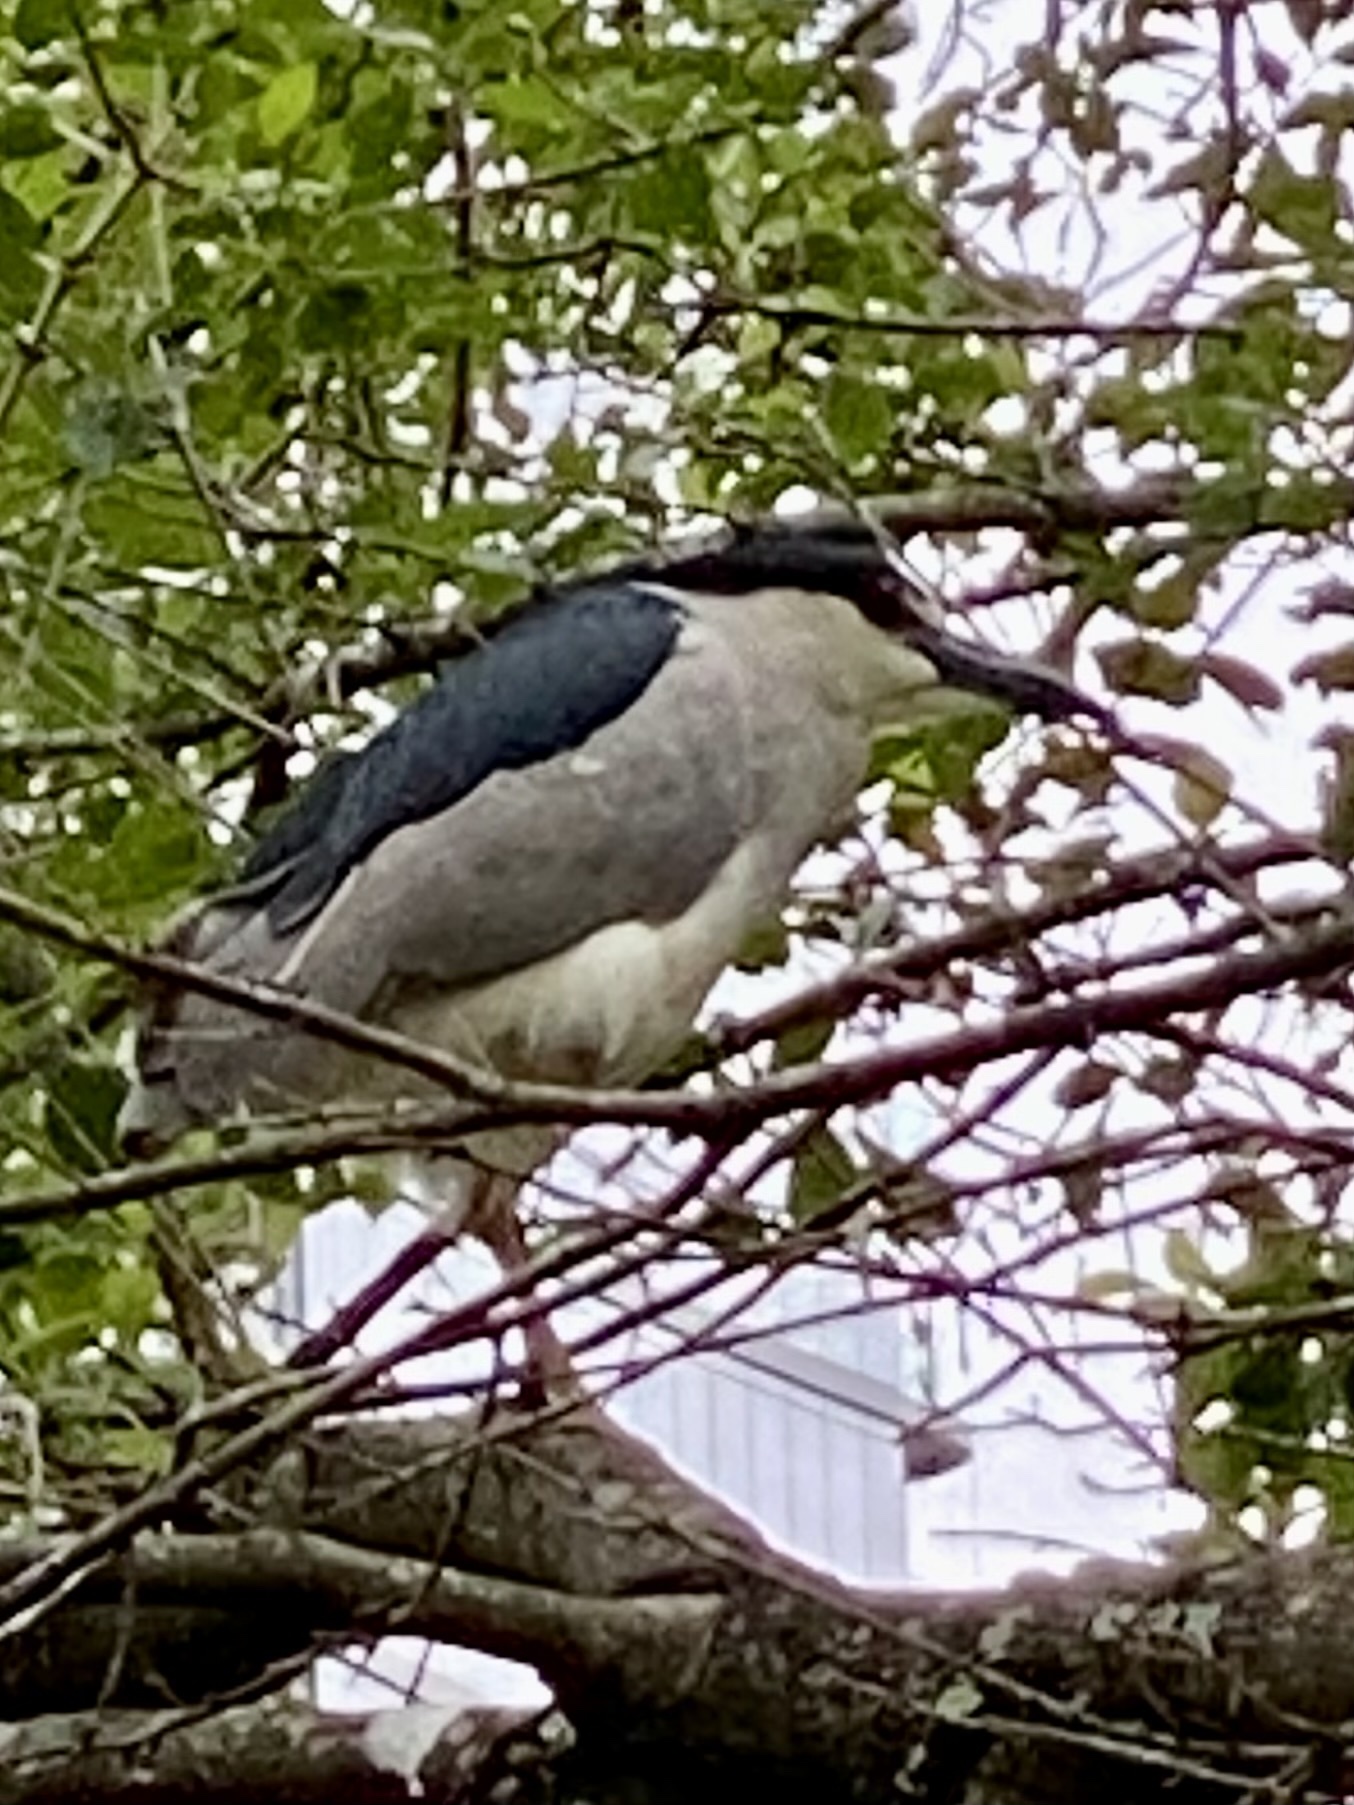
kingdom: Animalia
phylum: Chordata
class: Aves
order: Pelecaniformes
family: Ardeidae
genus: Nycticorax
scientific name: Nycticorax nycticorax
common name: Black-crowned night heron
